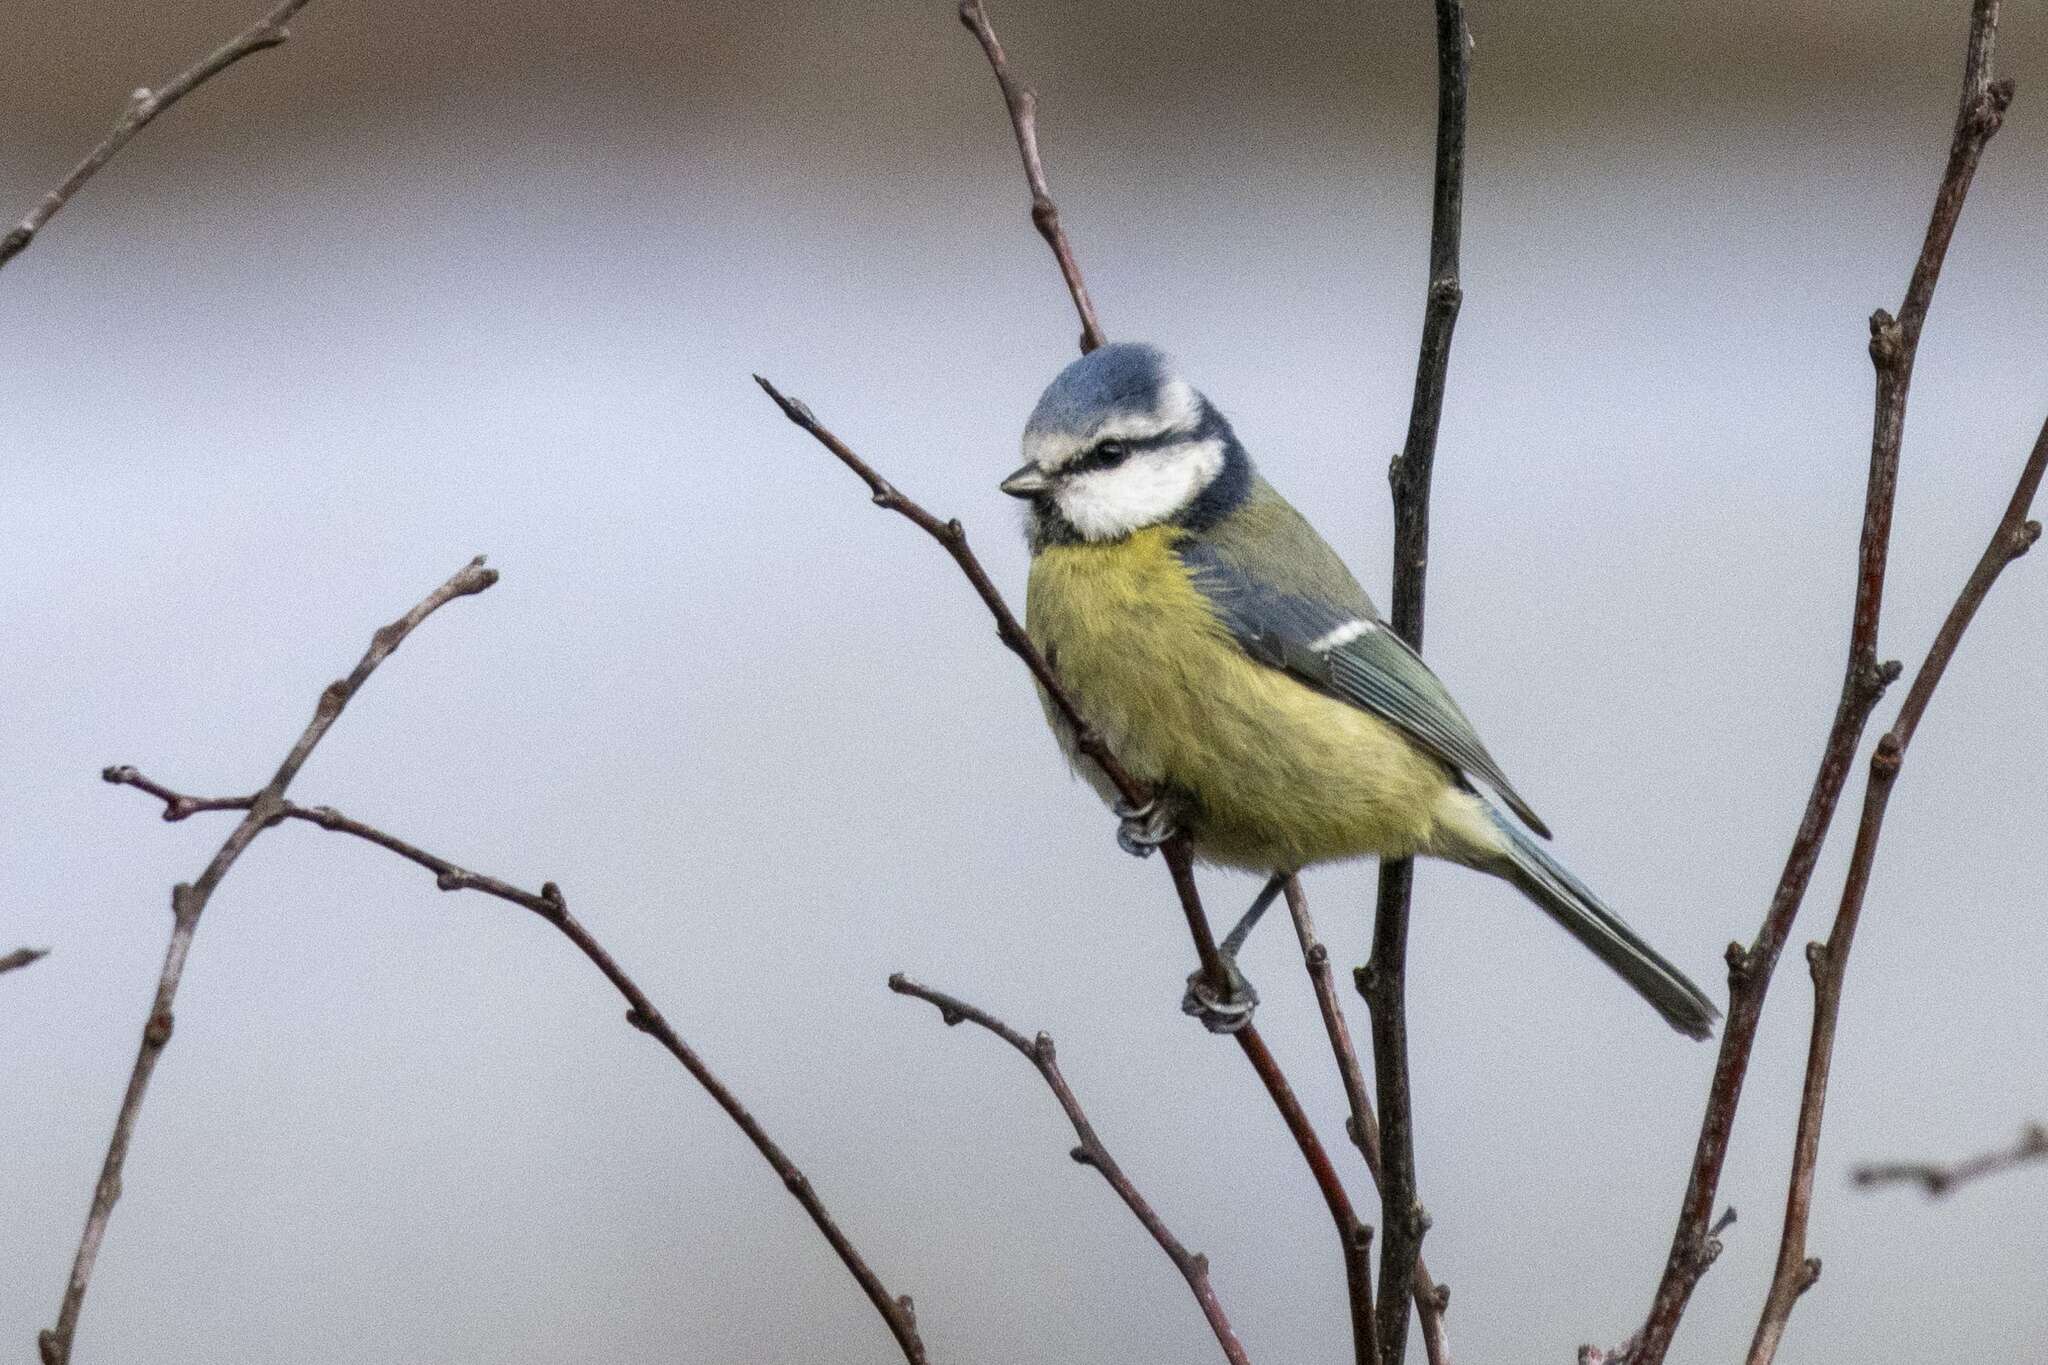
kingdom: Animalia
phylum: Chordata
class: Aves
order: Passeriformes
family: Paridae
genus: Cyanistes
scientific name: Cyanistes caeruleus
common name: Eurasian blue tit
